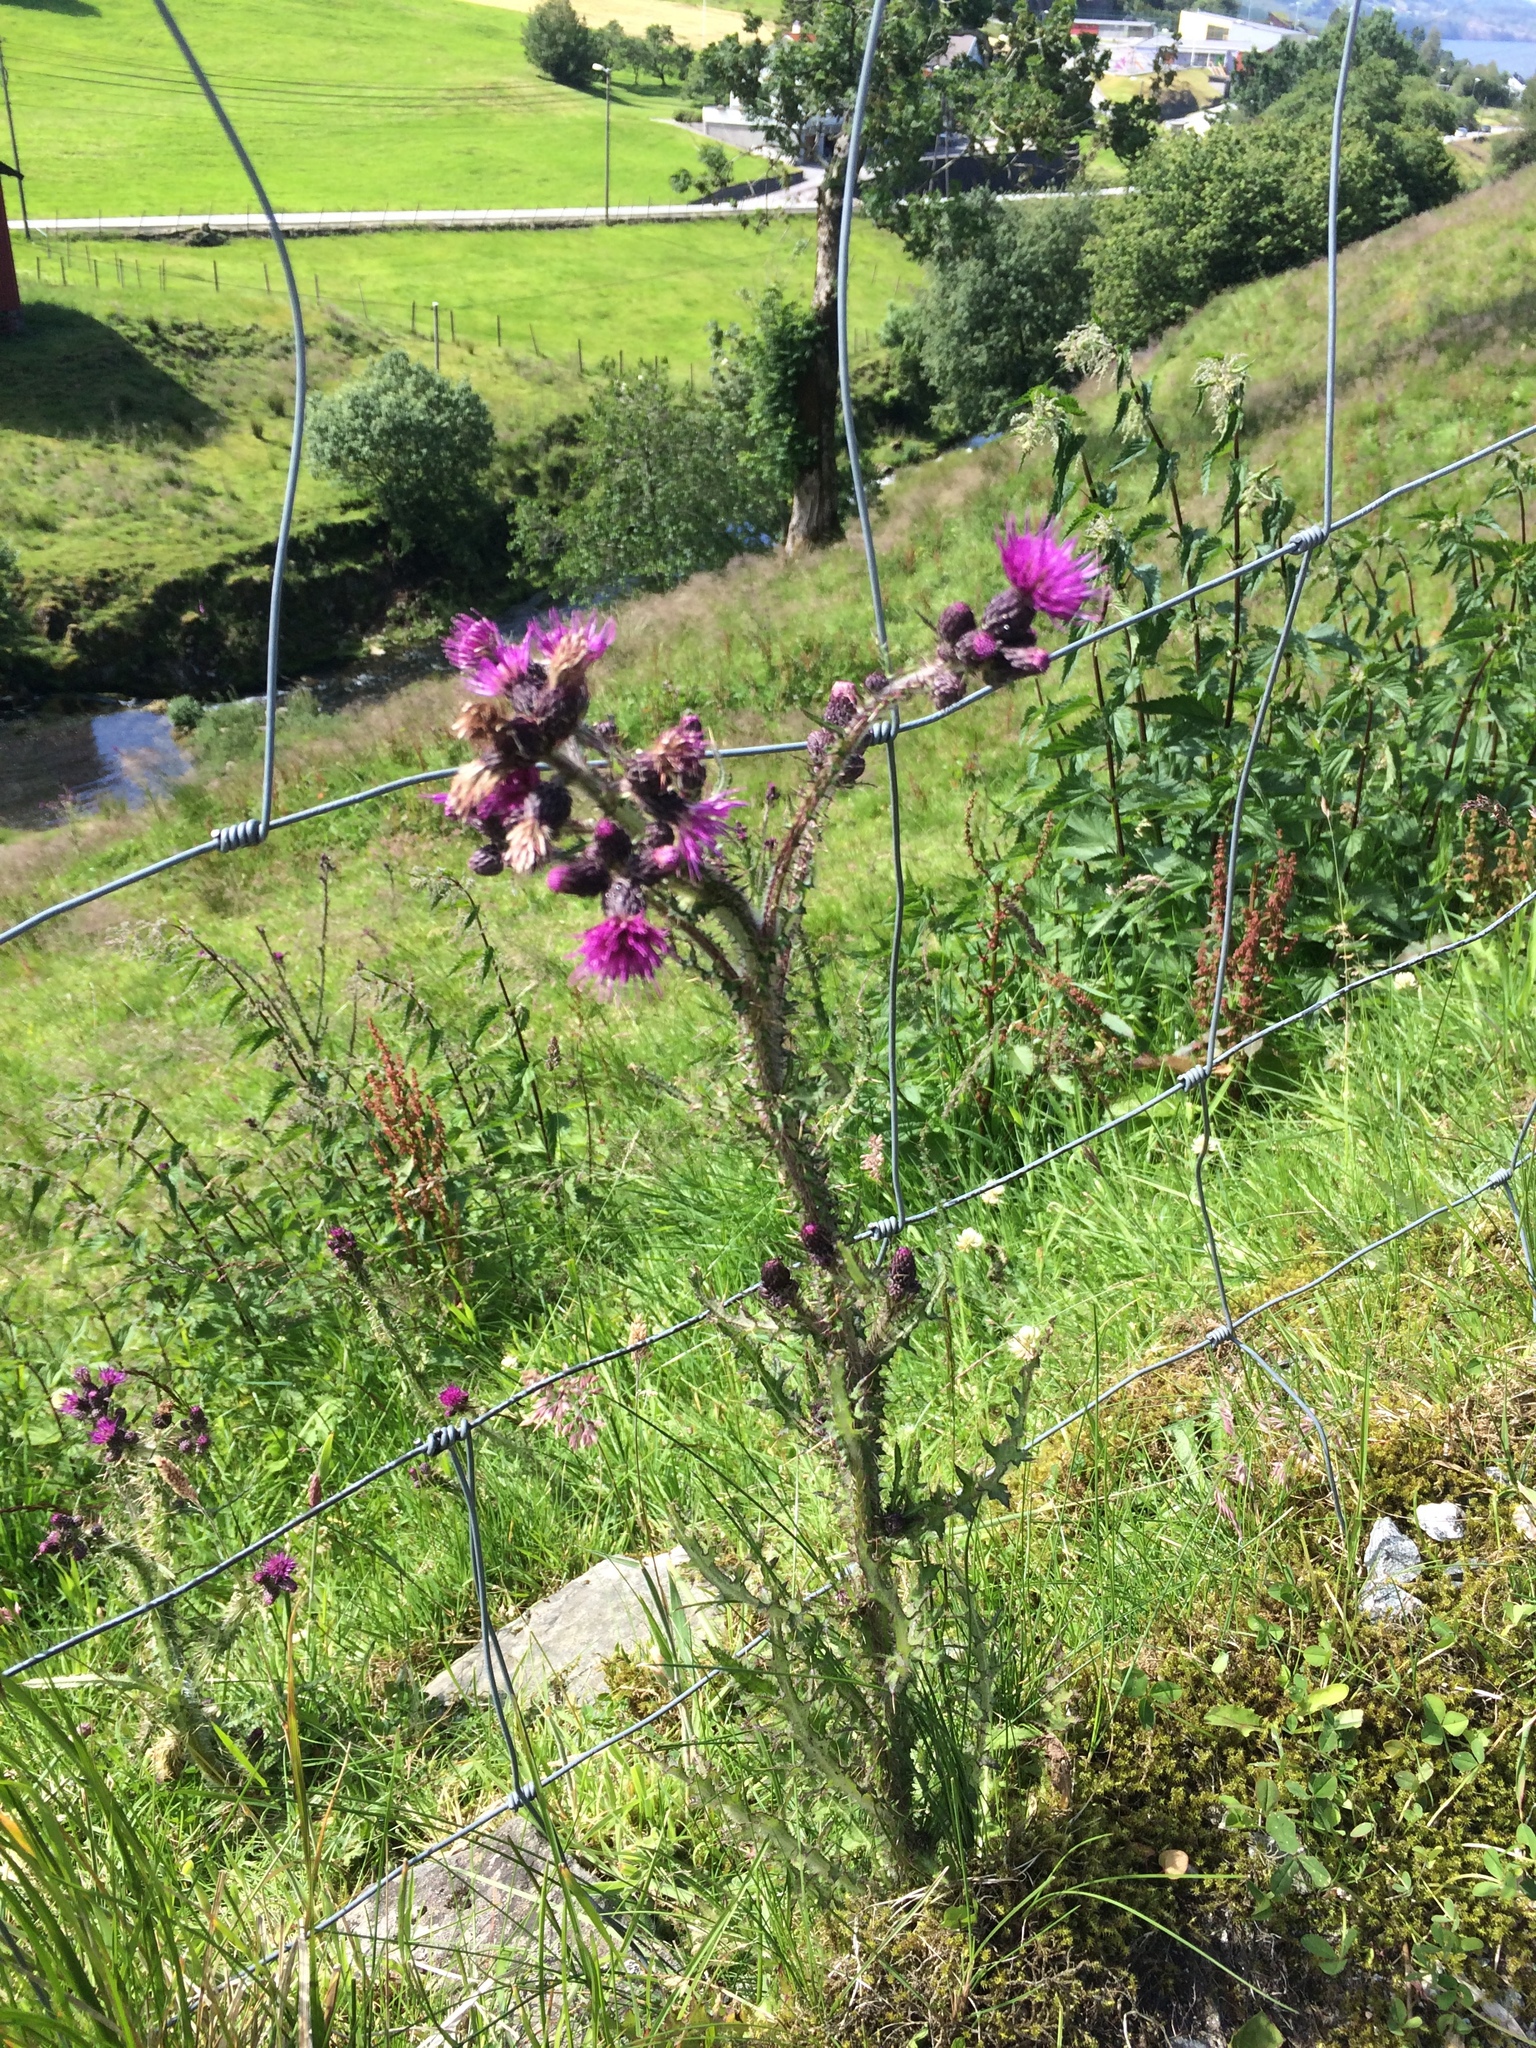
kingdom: Plantae
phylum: Tracheophyta
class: Magnoliopsida
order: Asterales
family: Asteraceae
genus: Cirsium
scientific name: Cirsium palustre
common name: Marsh thistle
